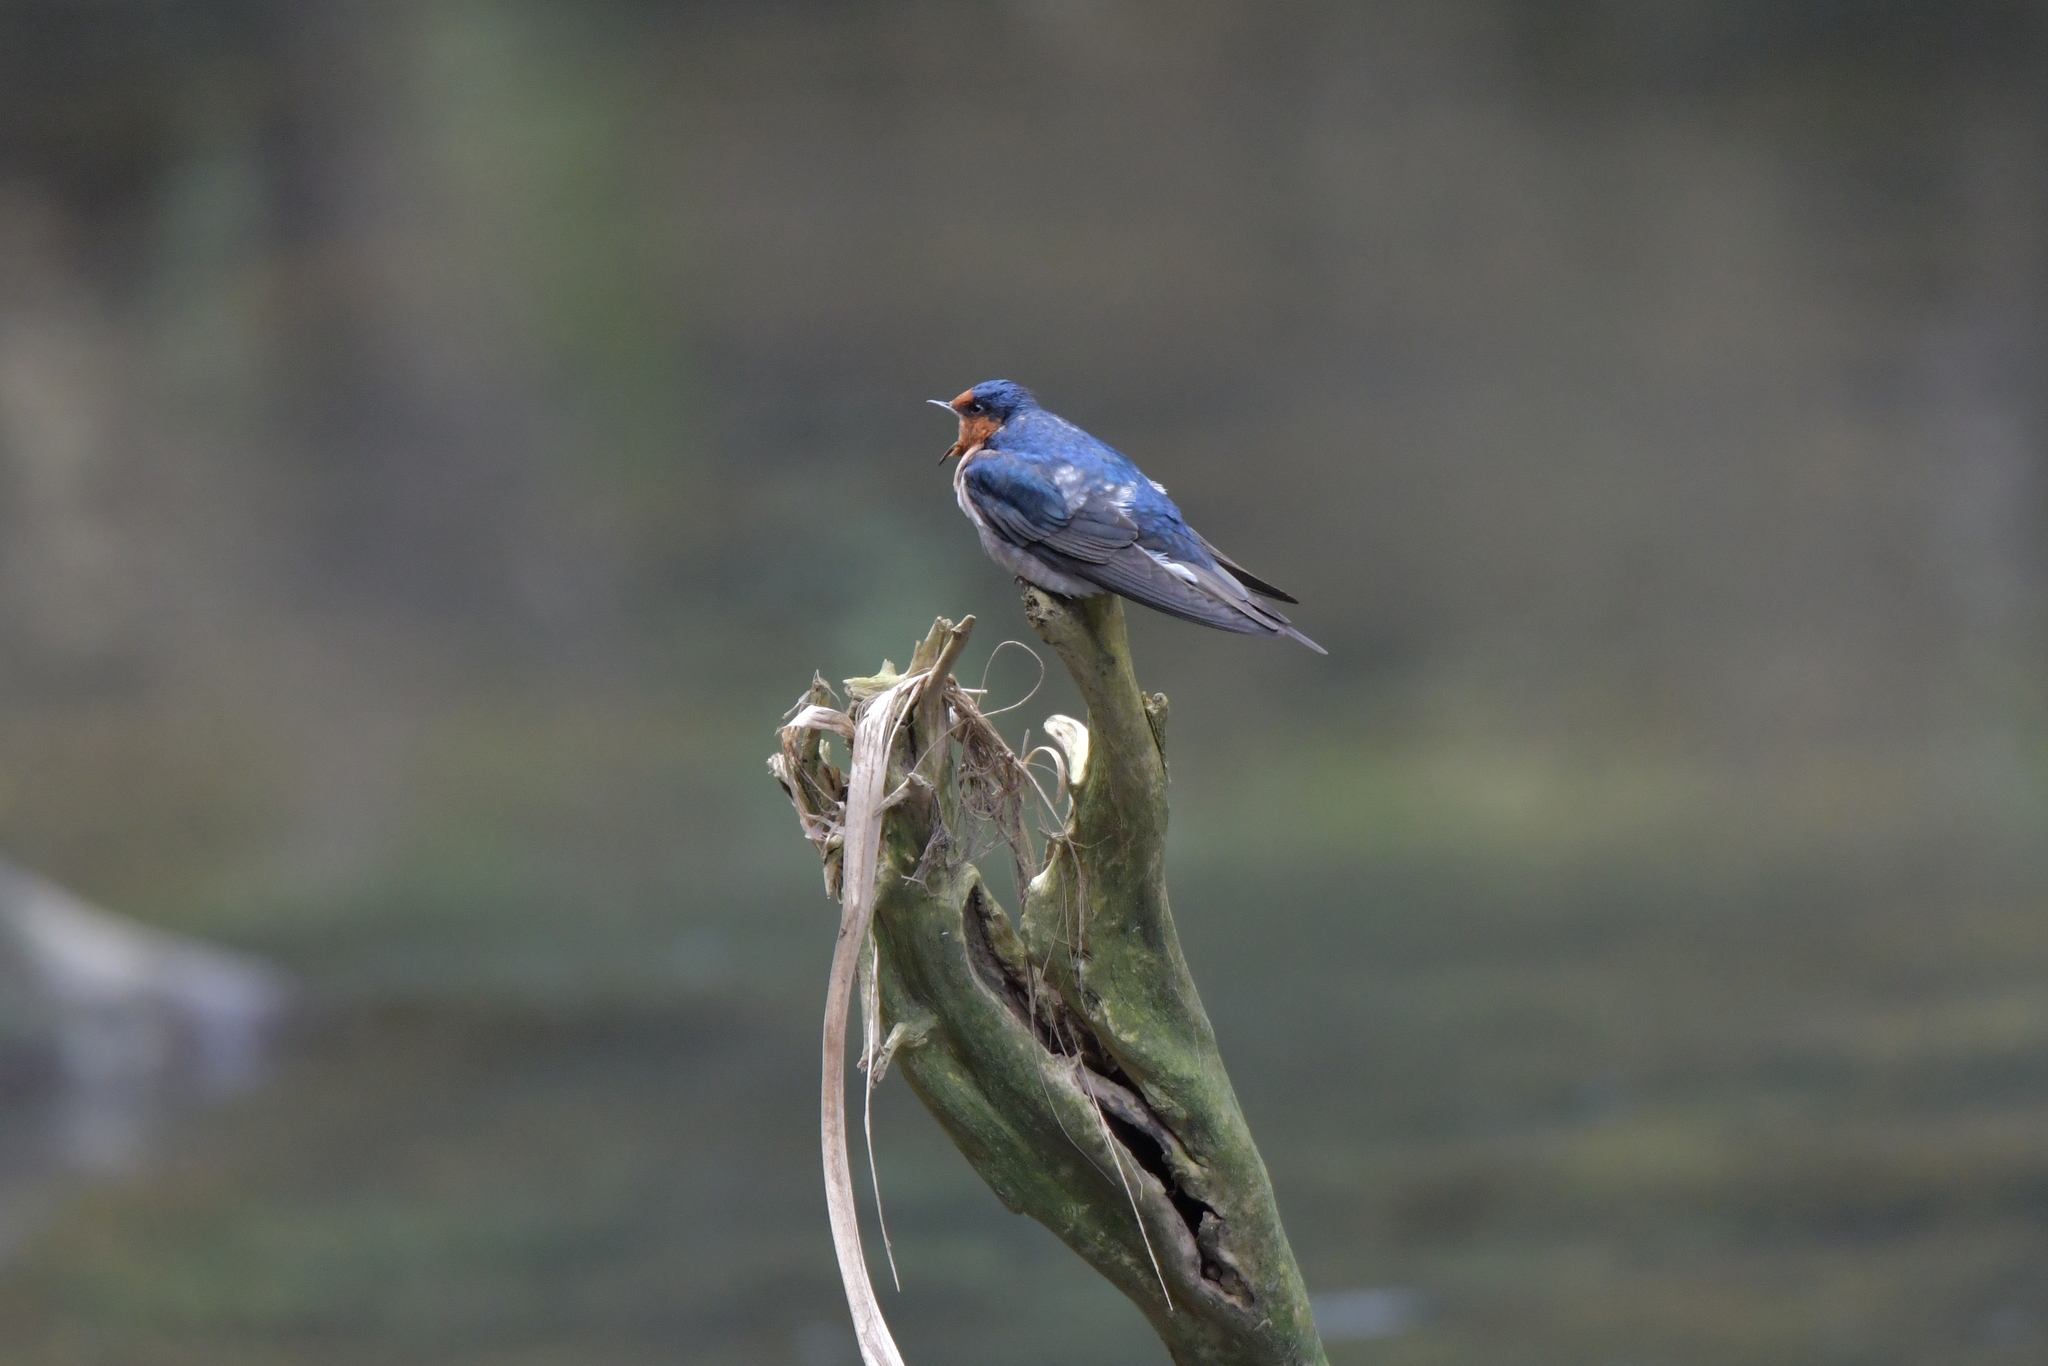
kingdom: Animalia
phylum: Chordata
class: Aves
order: Passeriformes
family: Hirundinidae
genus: Hirundo
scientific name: Hirundo neoxena
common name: Welcome swallow
